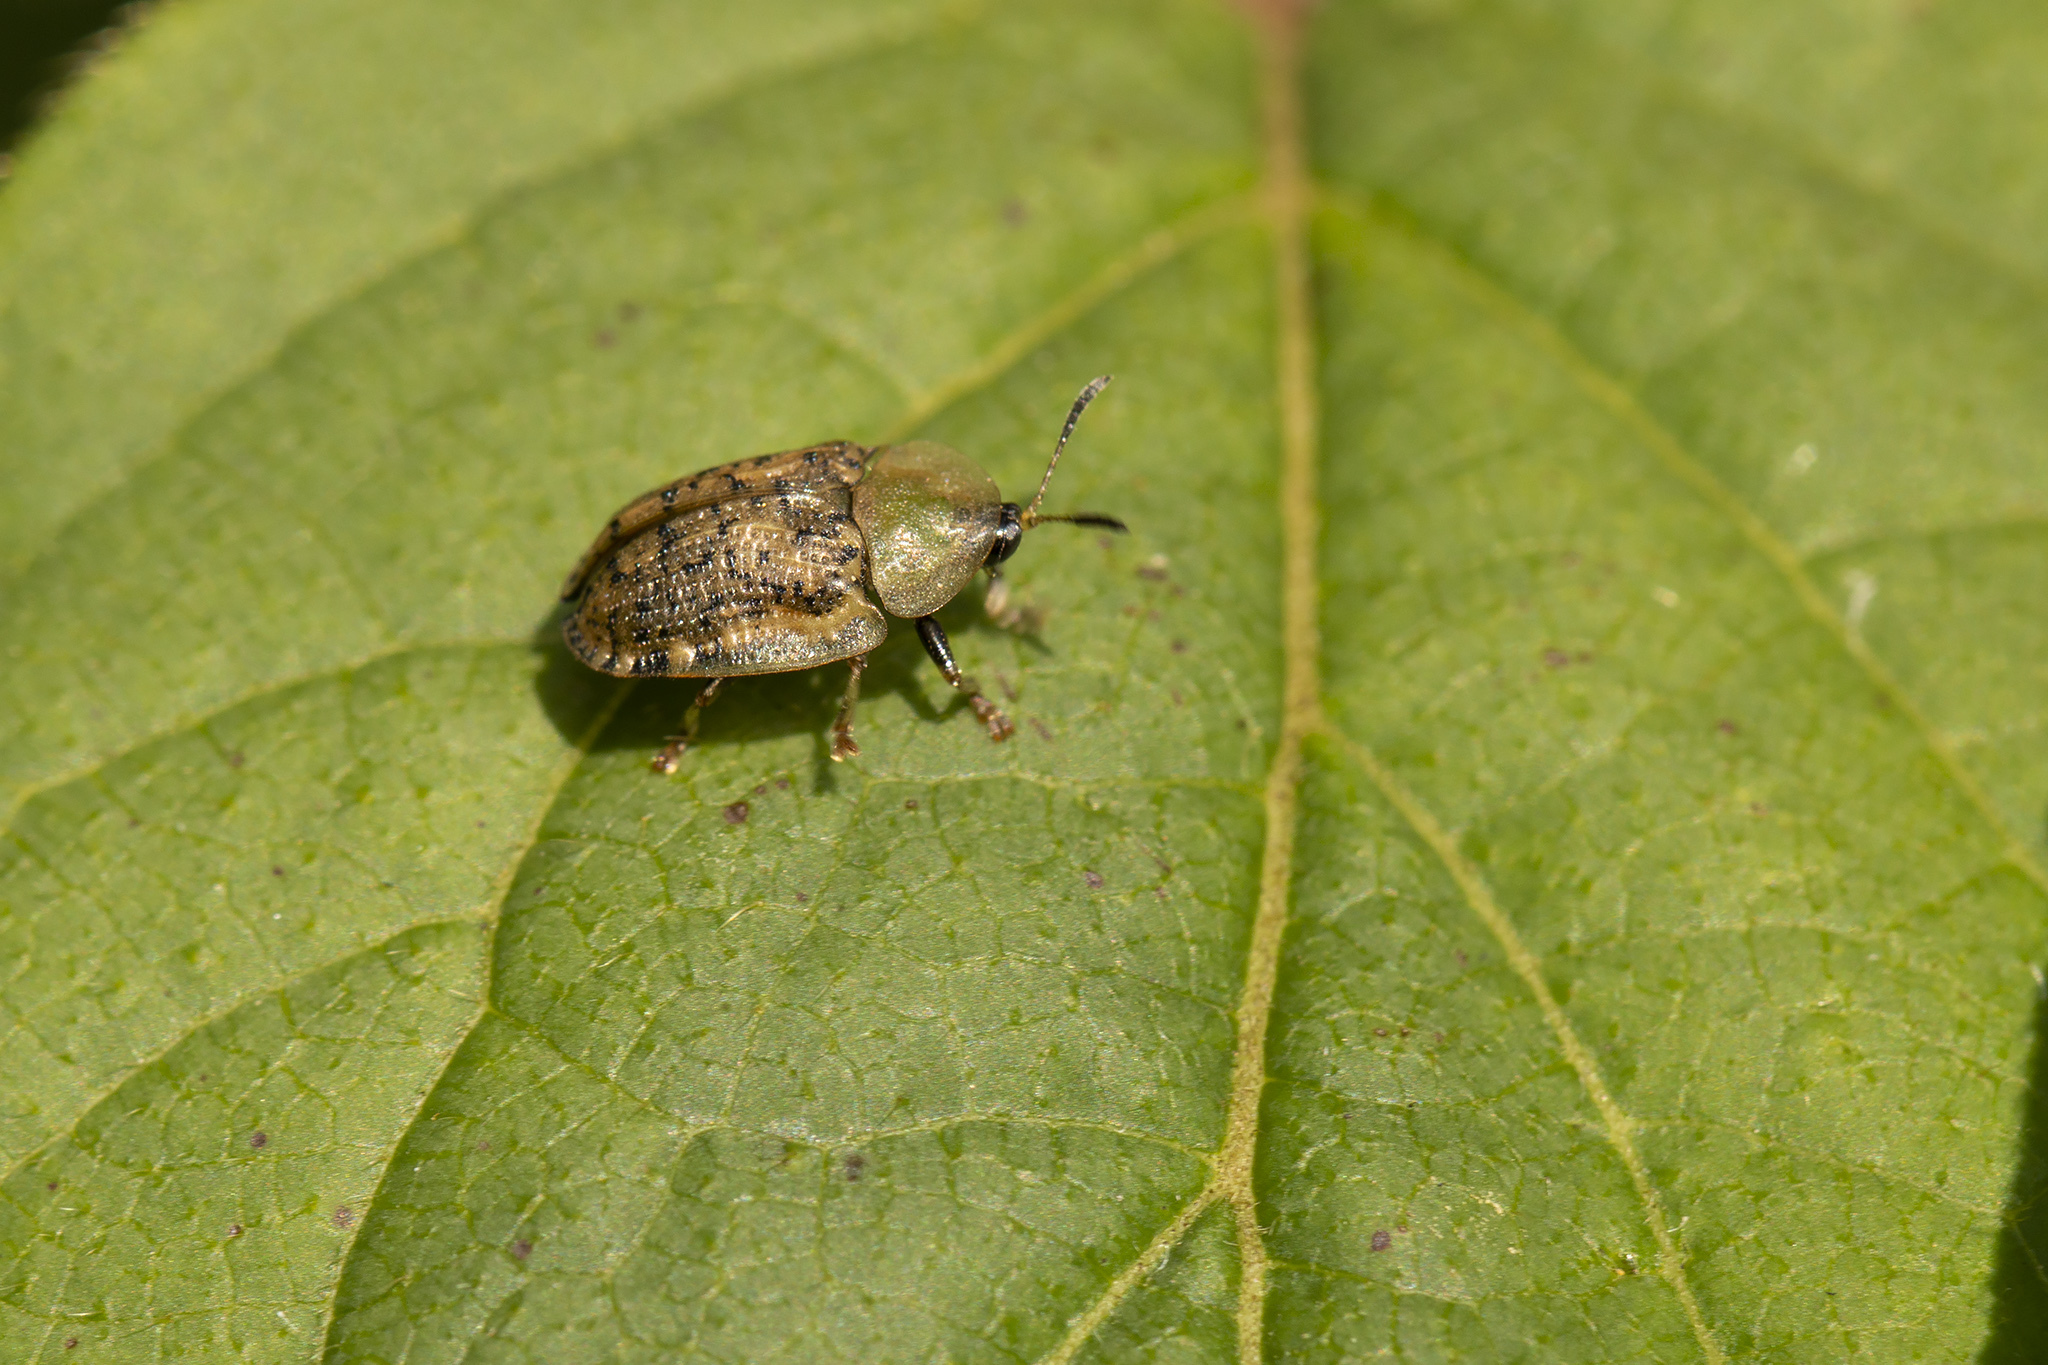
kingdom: Animalia
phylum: Arthropoda
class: Insecta
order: Coleoptera
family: Chrysomelidae
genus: Cassida
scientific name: Cassida nebulosa
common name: Beet tortoise beetle
